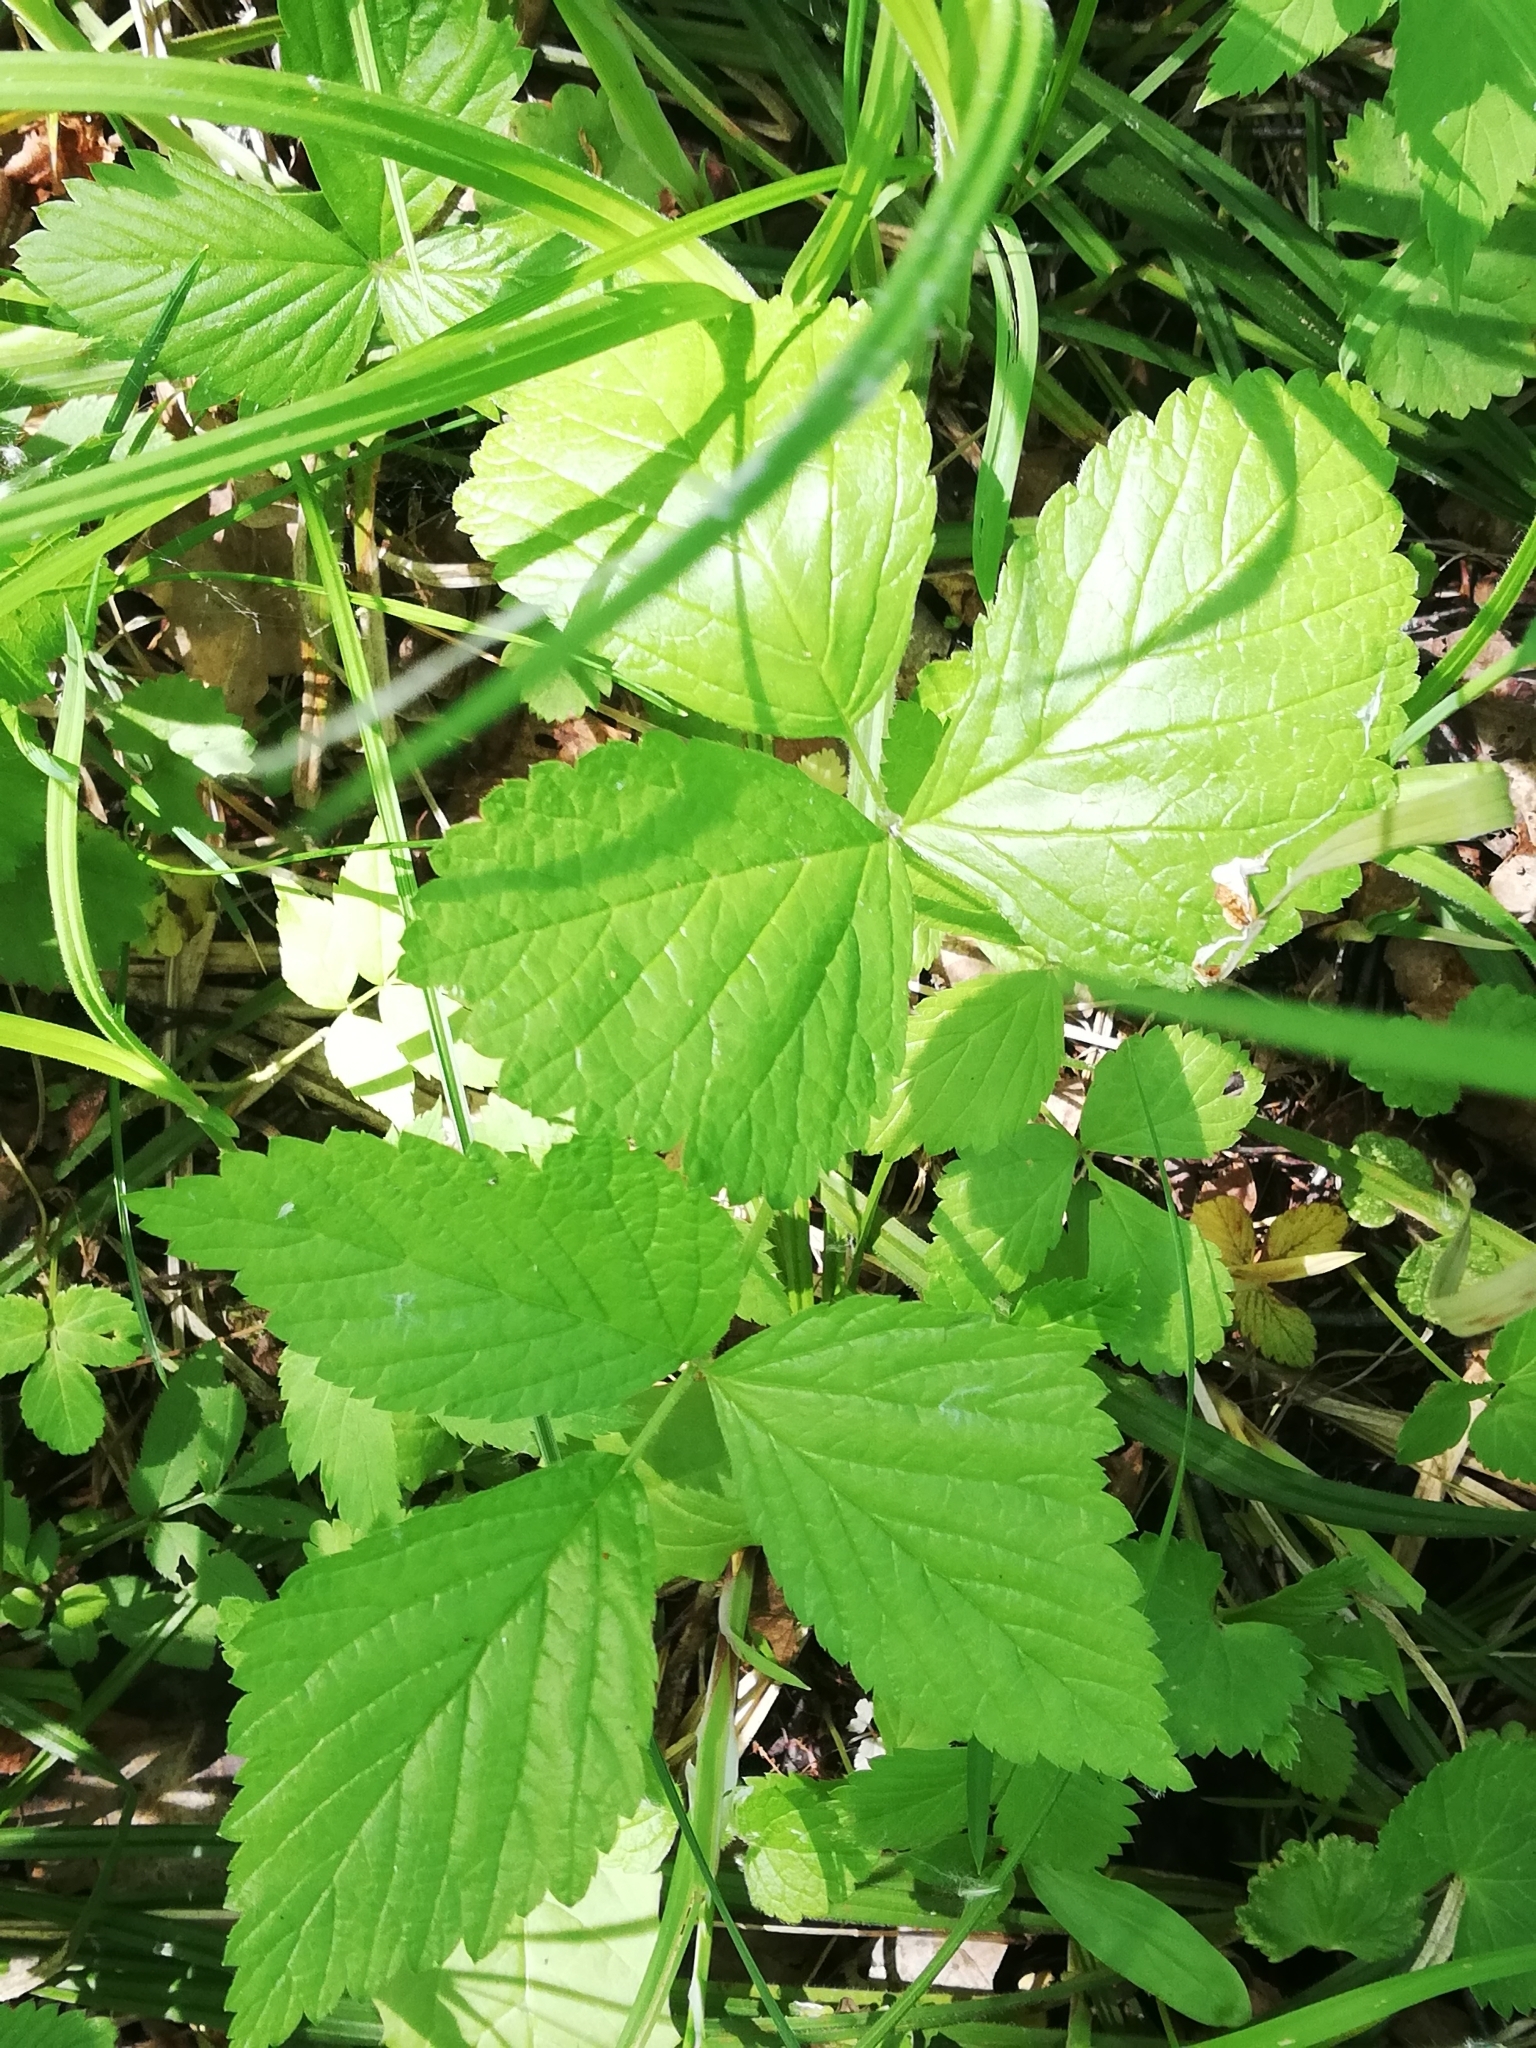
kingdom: Plantae
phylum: Tracheophyta
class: Magnoliopsida
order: Rosales
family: Rosaceae
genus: Rubus
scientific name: Rubus saxatilis
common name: Stone bramble
